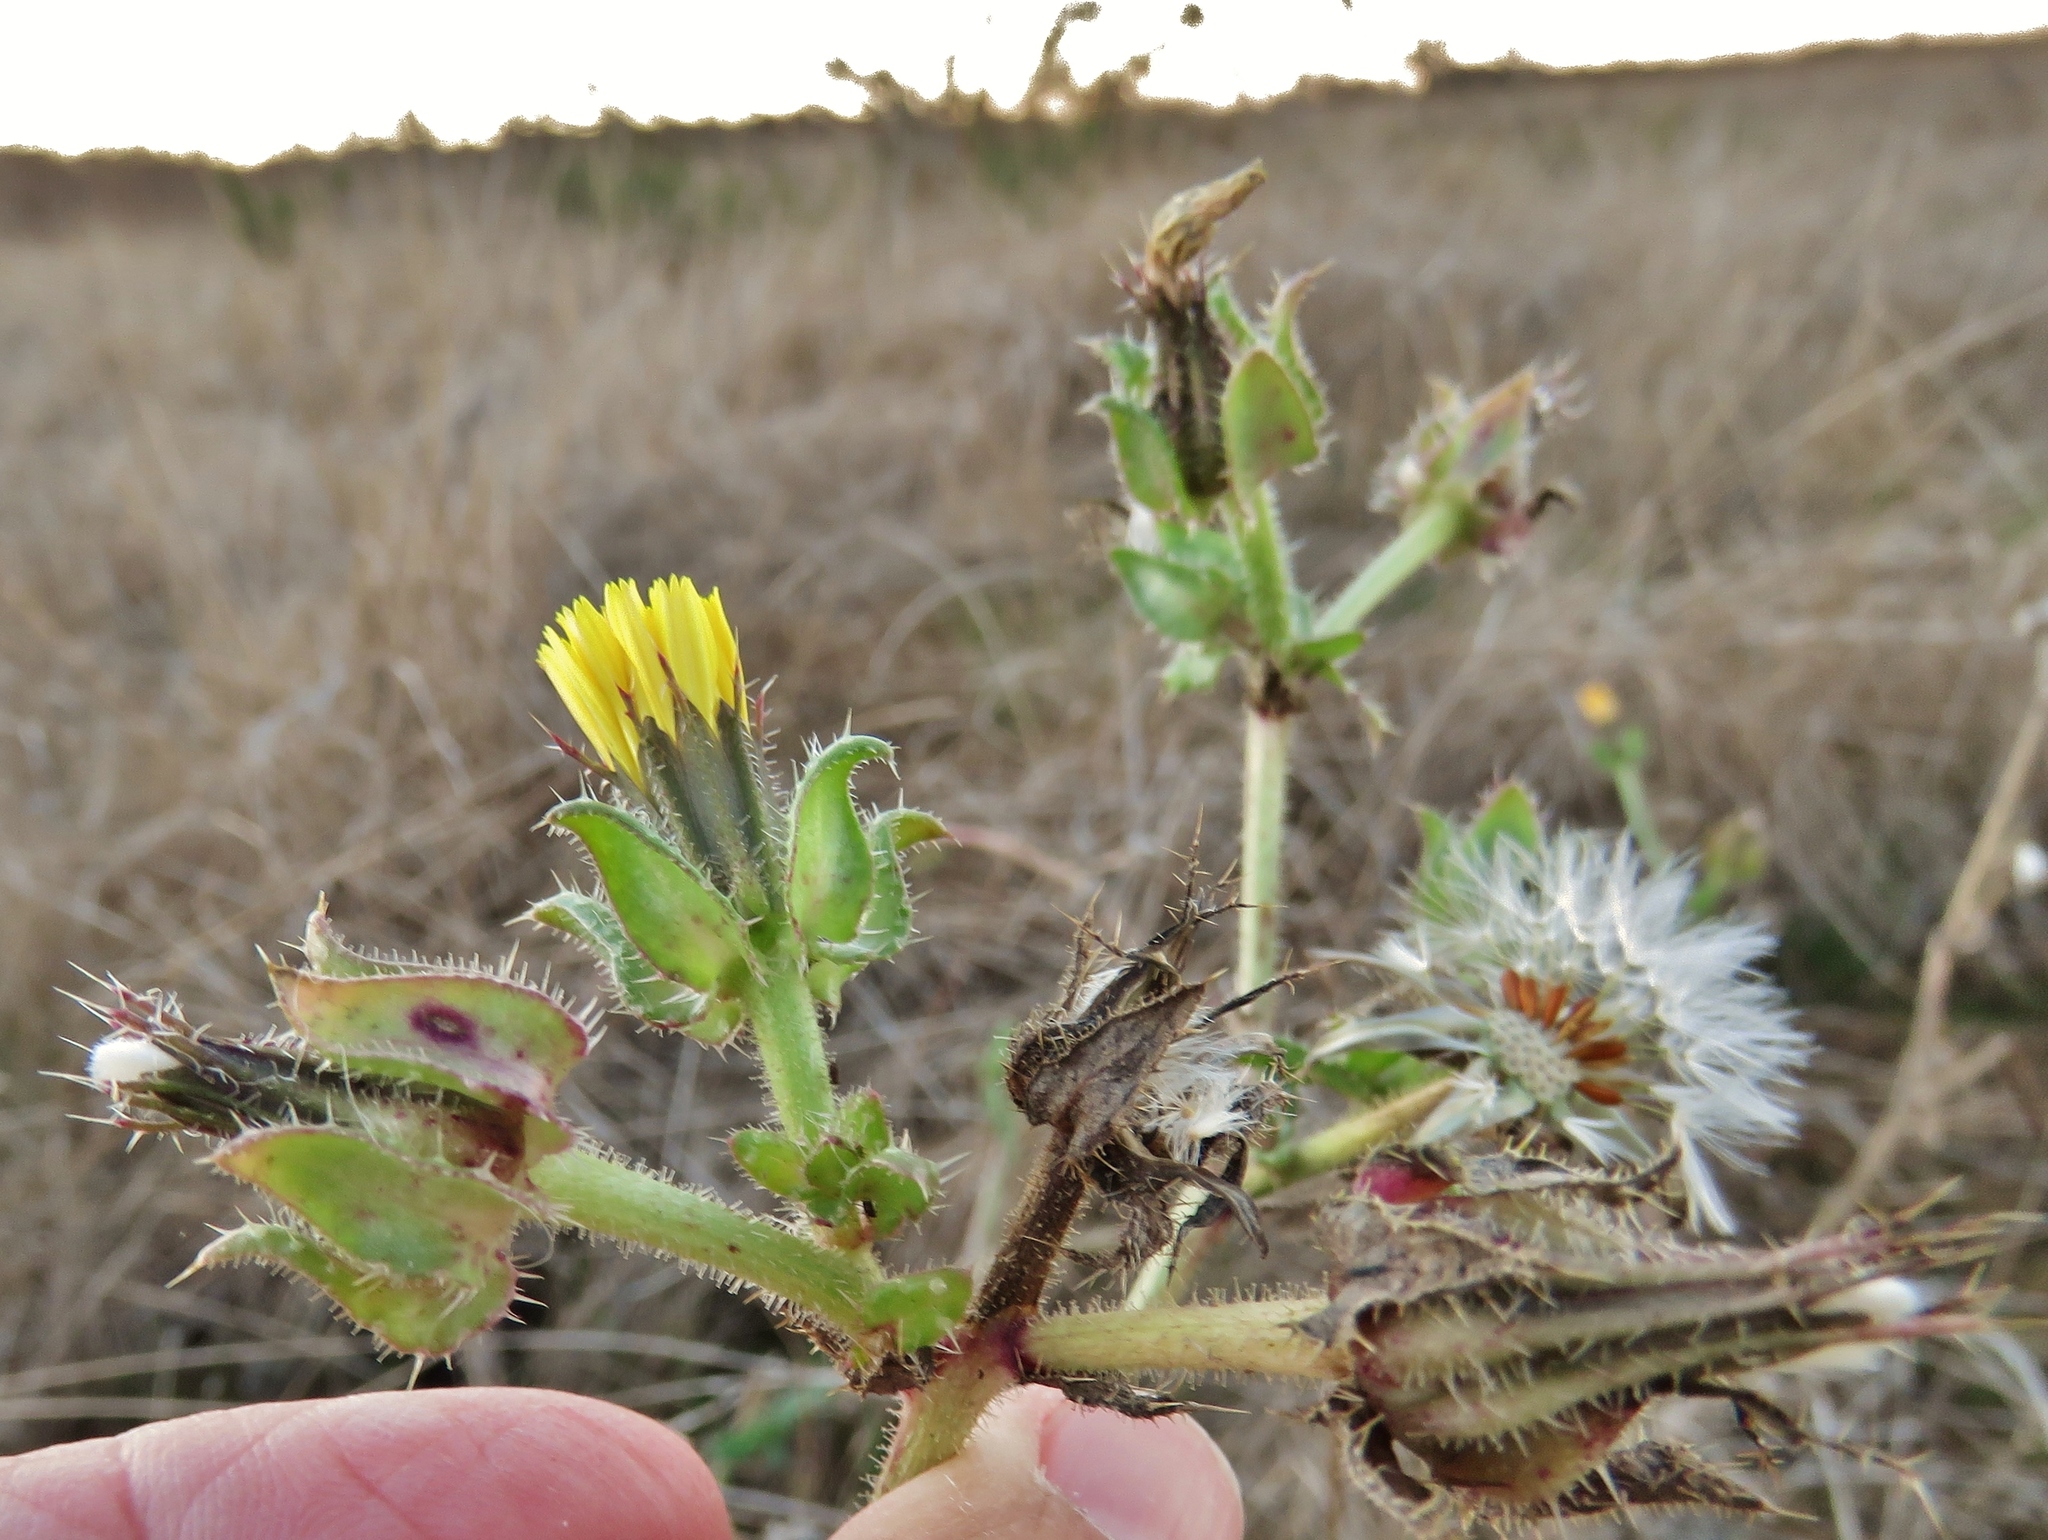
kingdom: Plantae
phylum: Tracheophyta
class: Magnoliopsida
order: Asterales
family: Asteraceae
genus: Helminthotheca
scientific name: Helminthotheca echioides
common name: Ox-tongue
